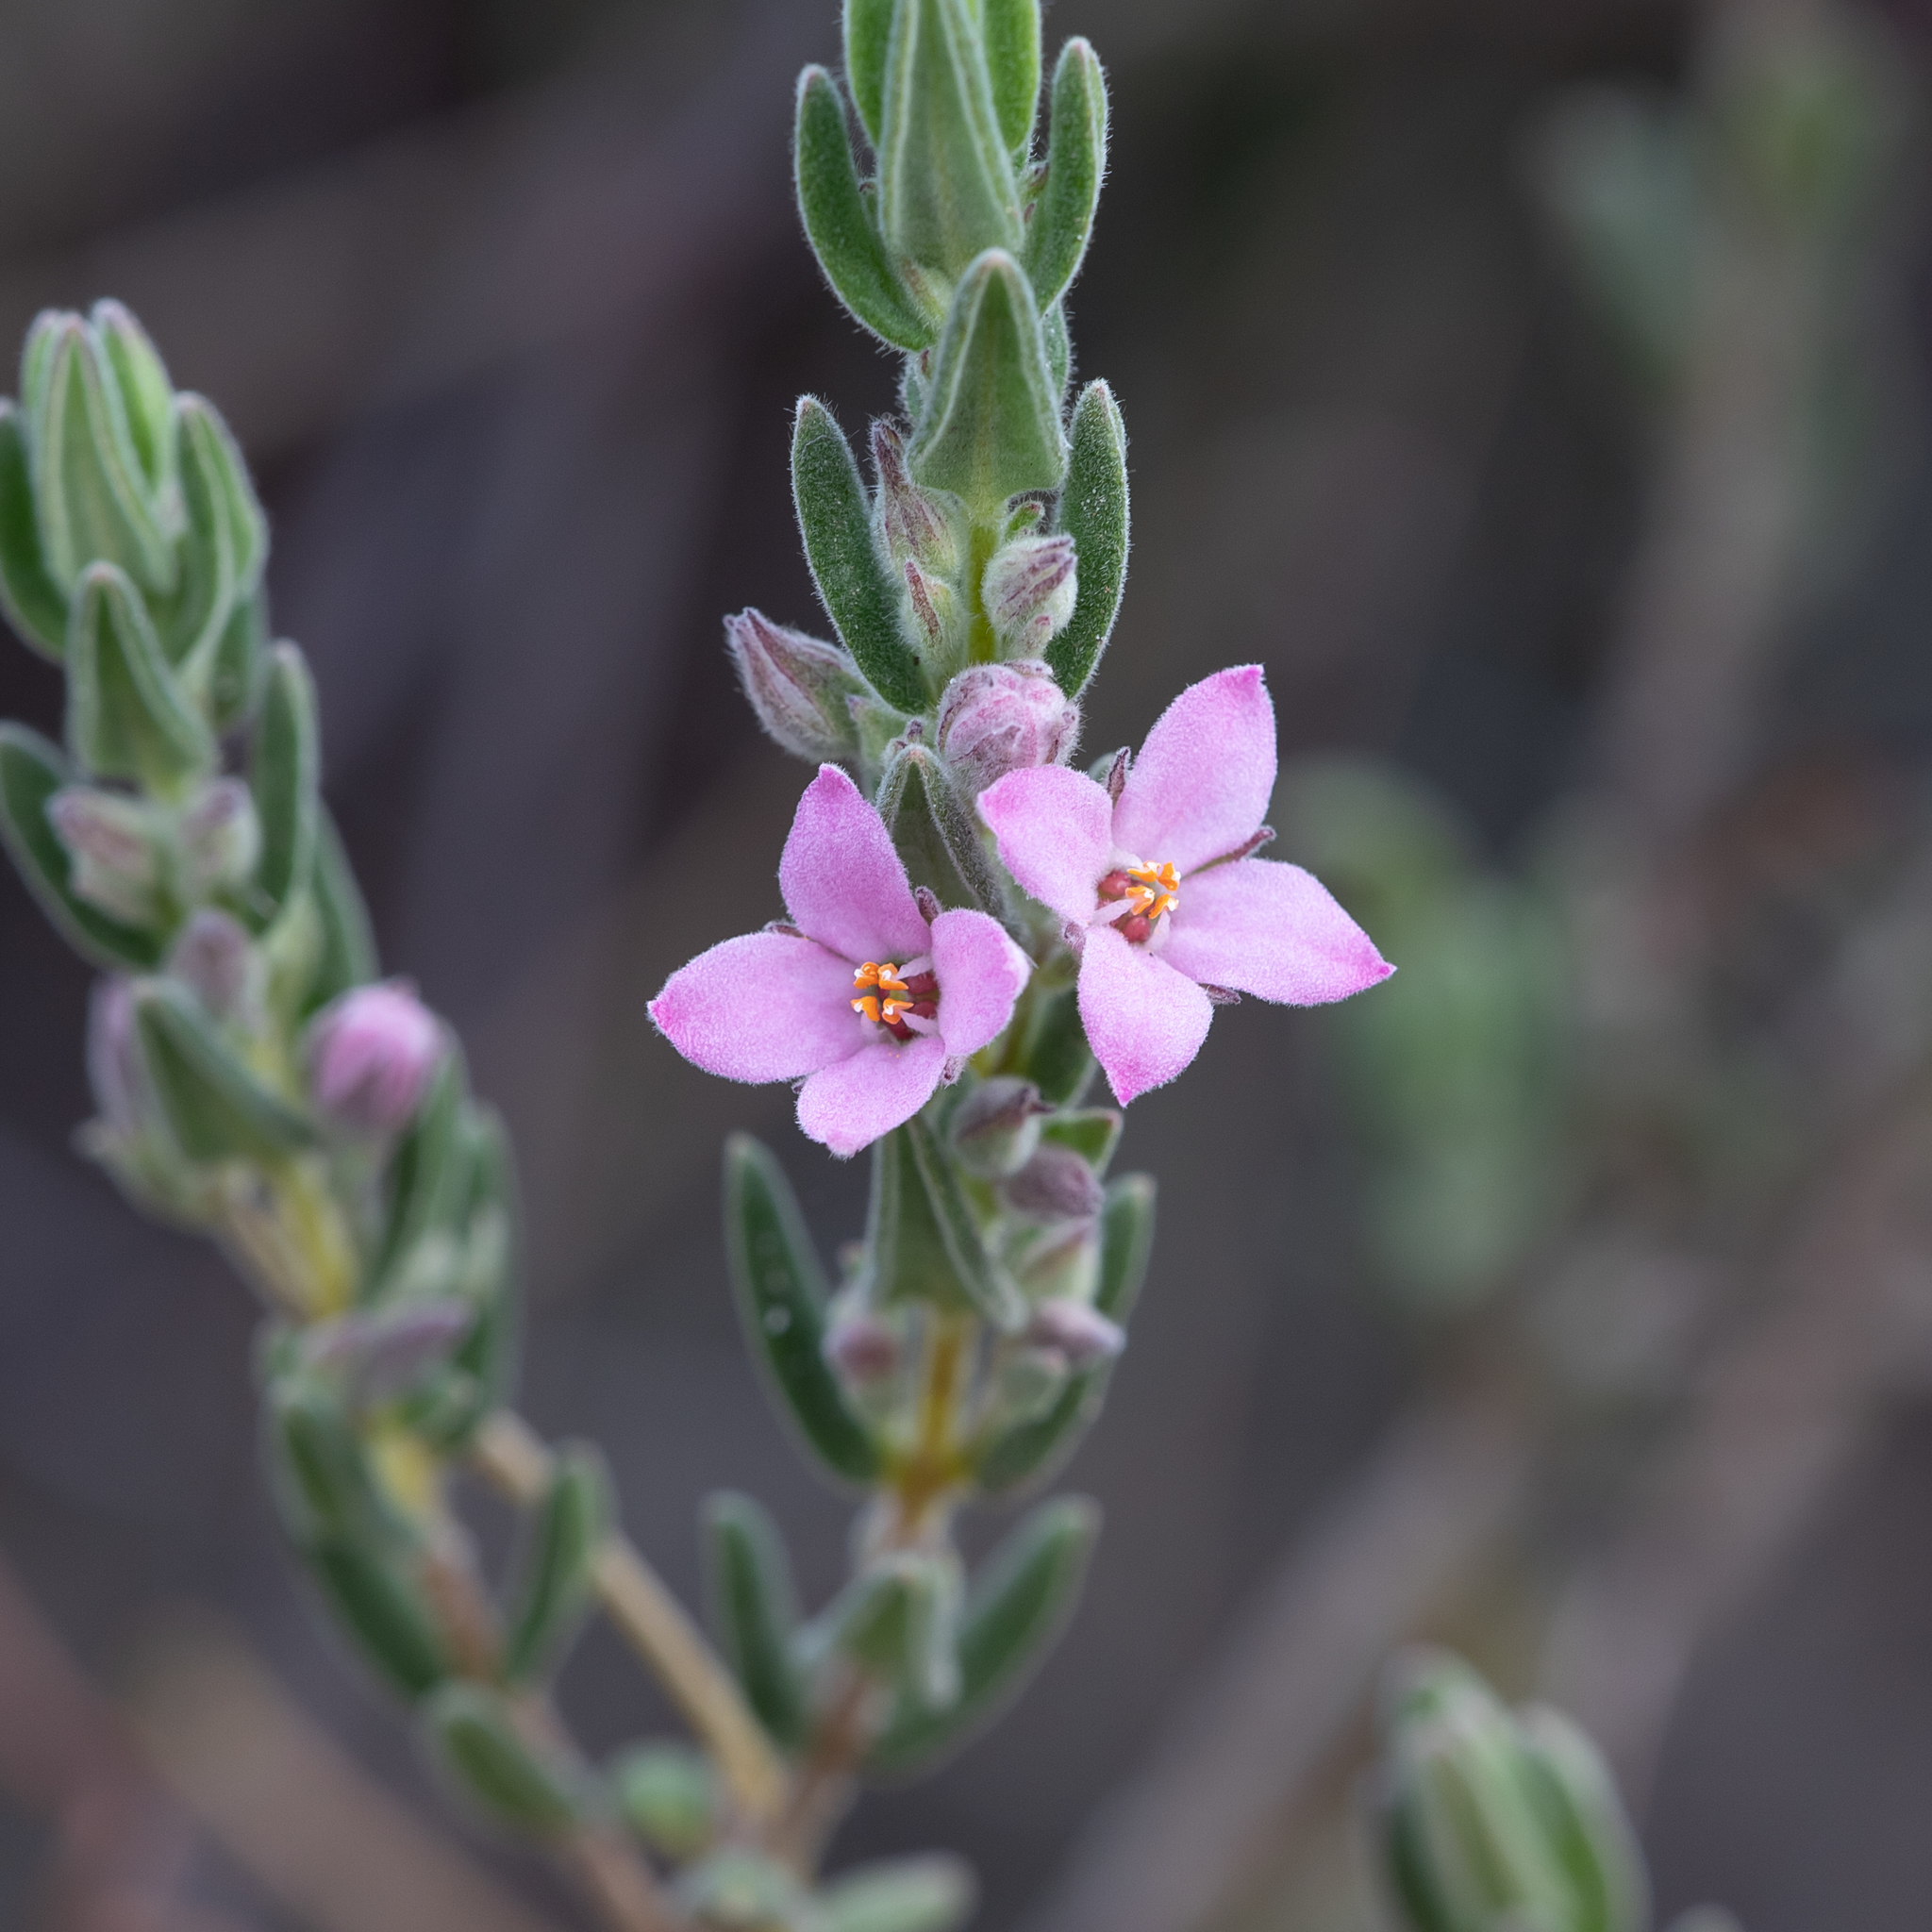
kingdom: Plantae
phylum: Tracheophyta
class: Magnoliopsida
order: Sapindales
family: Rutaceae
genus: Zieria
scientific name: Zieria veronicea
